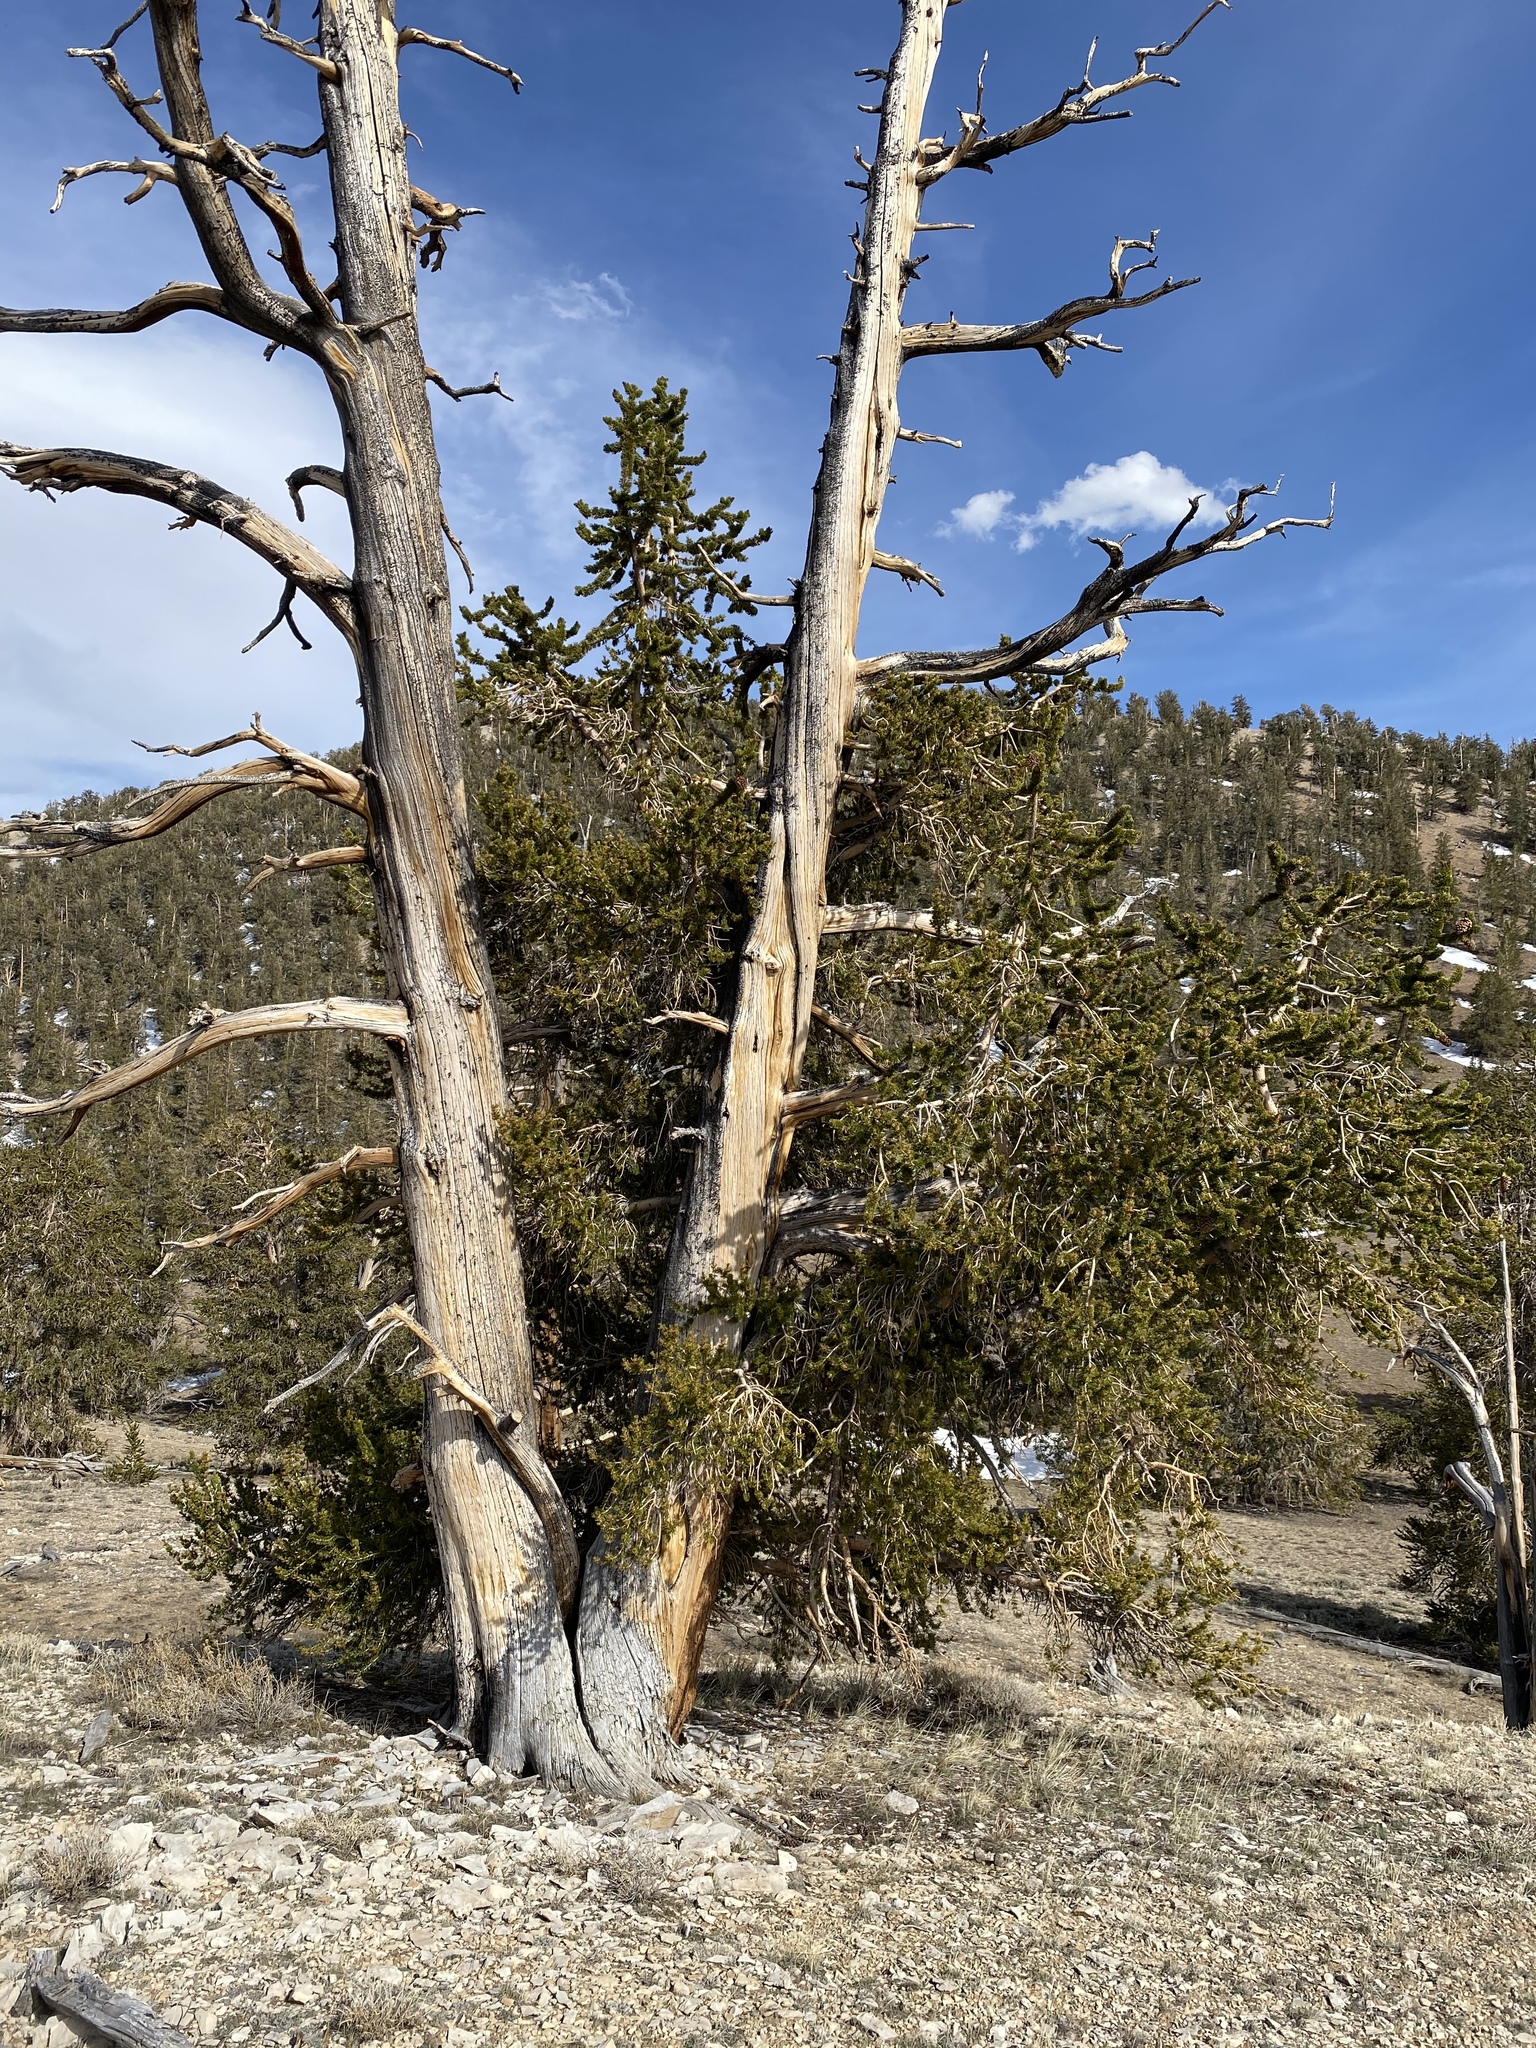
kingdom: Plantae
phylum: Tracheophyta
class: Pinopsida
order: Pinales
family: Pinaceae
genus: Pinus
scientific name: Pinus longaeva
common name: Intermountain bristlecone pine
